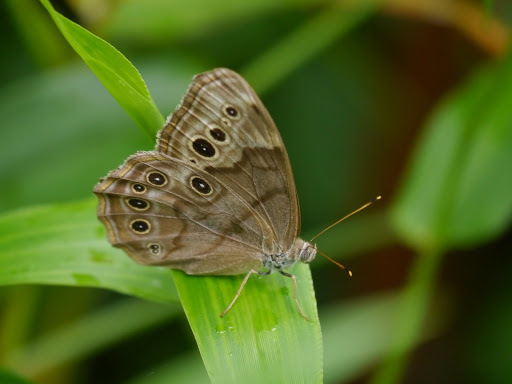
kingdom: Animalia
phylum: Arthropoda
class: Insecta
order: Lepidoptera
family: Nymphalidae
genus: Lethe
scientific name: Lethe anthedon
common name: Northern pearly-eye
